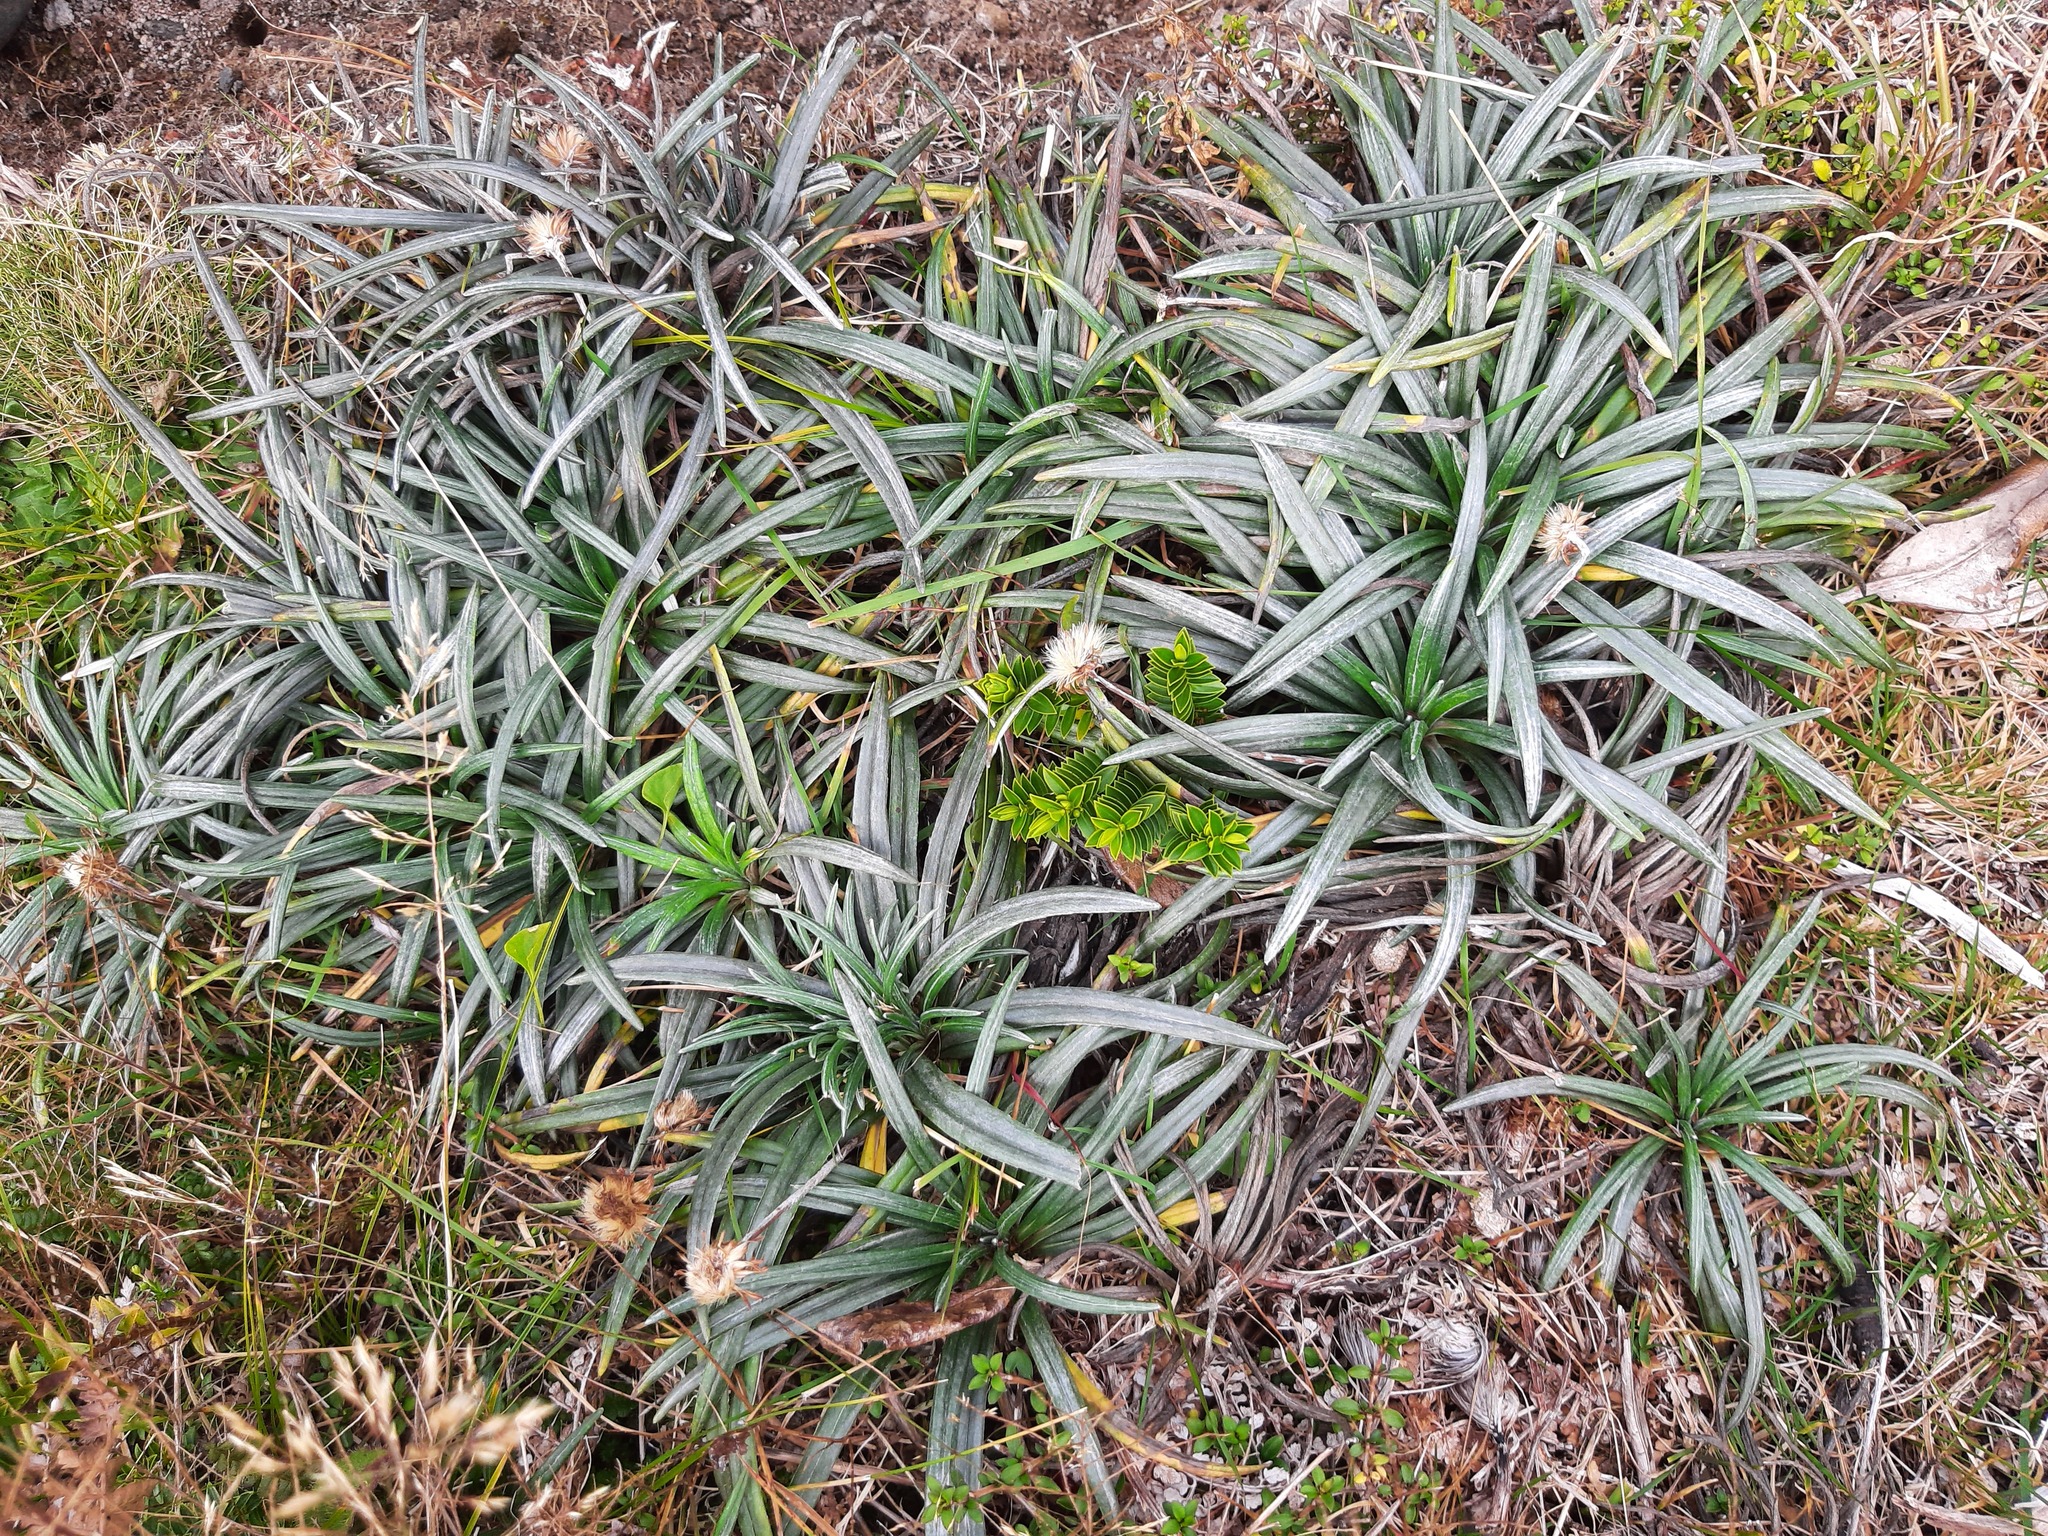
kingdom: Plantae
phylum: Tracheophyta
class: Magnoliopsida
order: Asterales
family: Asteraceae
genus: Celmisia
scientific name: Celmisia major
